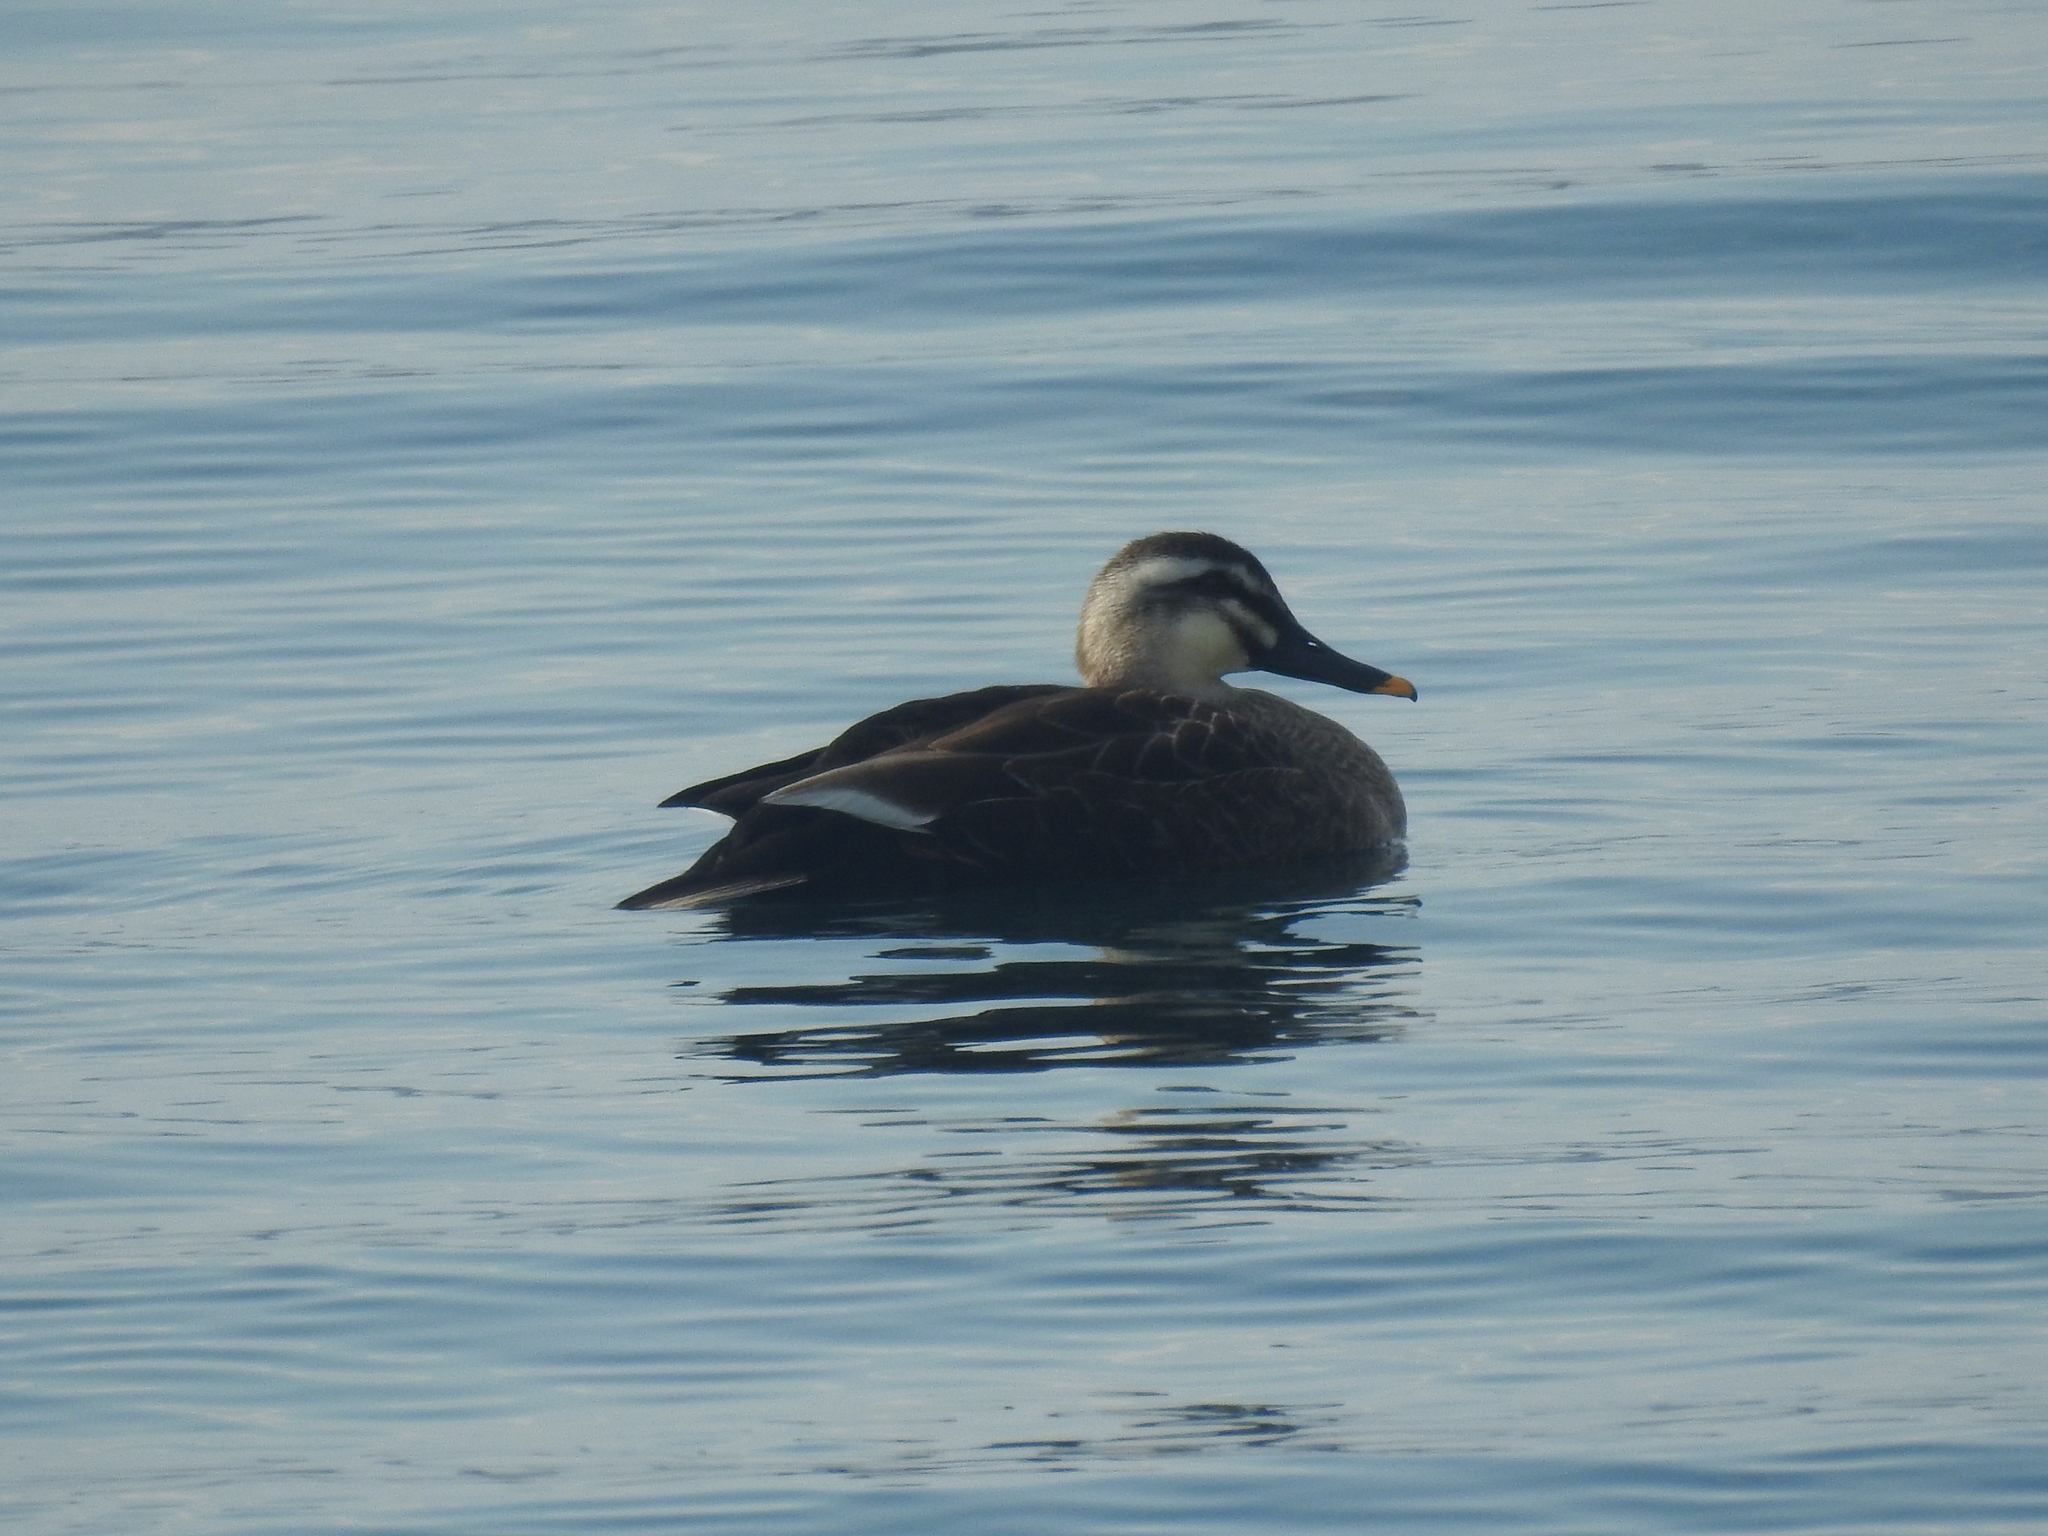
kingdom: Animalia
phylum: Chordata
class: Aves
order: Anseriformes
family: Anatidae
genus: Anas
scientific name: Anas zonorhyncha
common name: Eastern spot-billed duck
